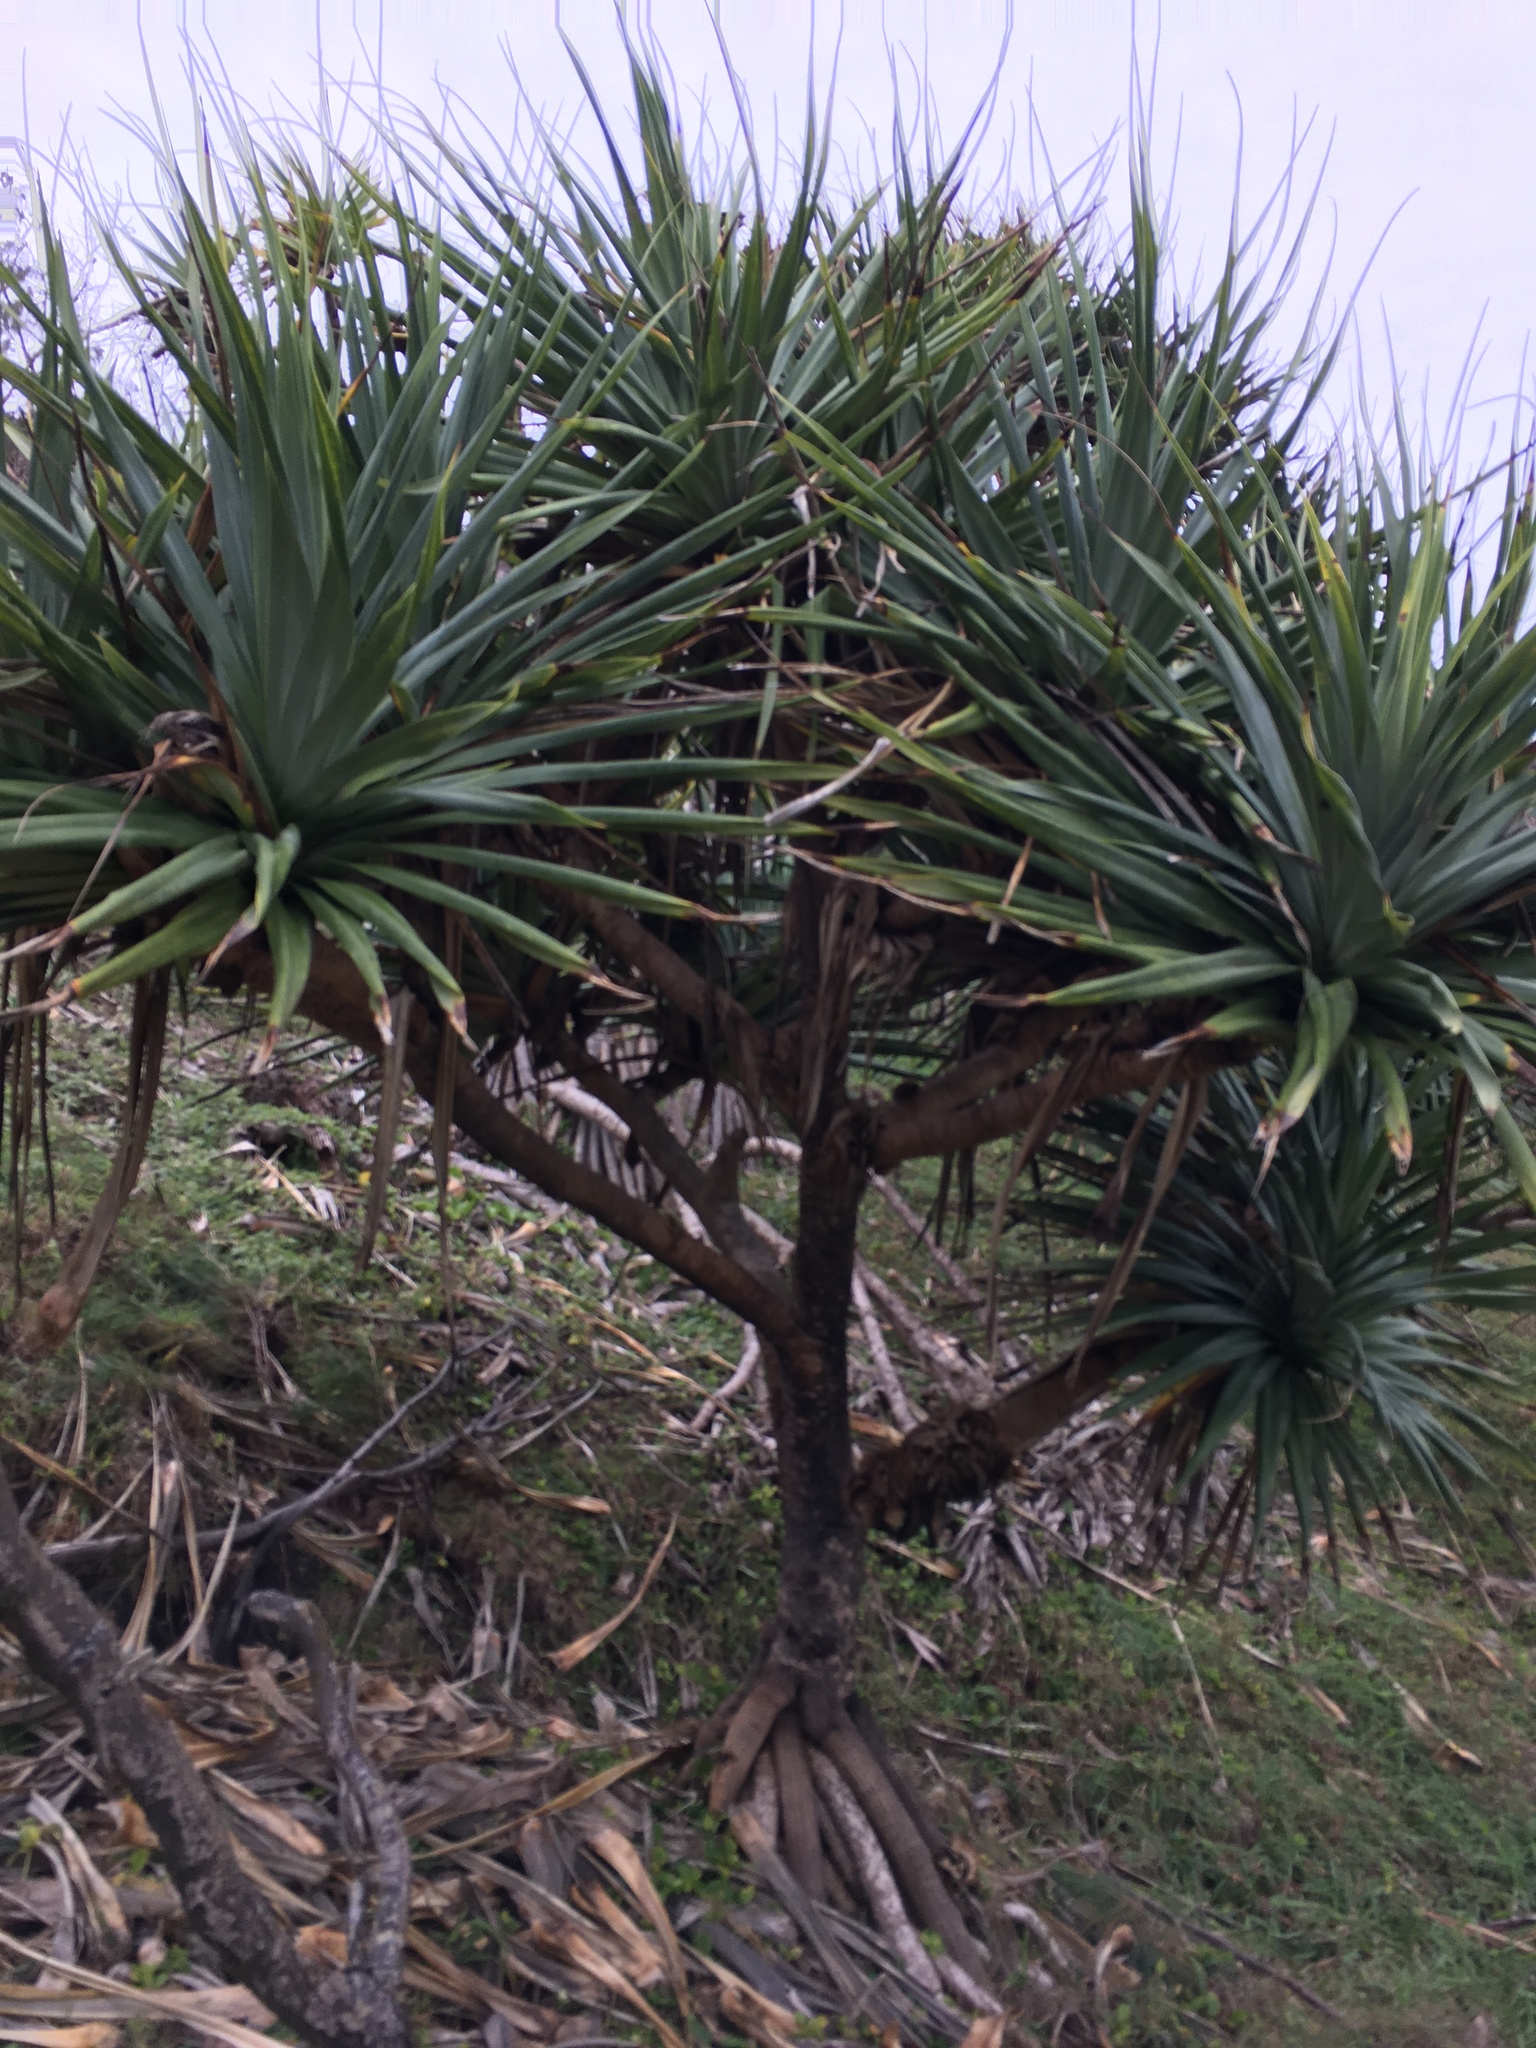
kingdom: Plantae
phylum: Tracheophyta
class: Liliopsida
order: Pandanales
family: Pandanaceae
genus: Pandanus
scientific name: Pandanus tectorius
